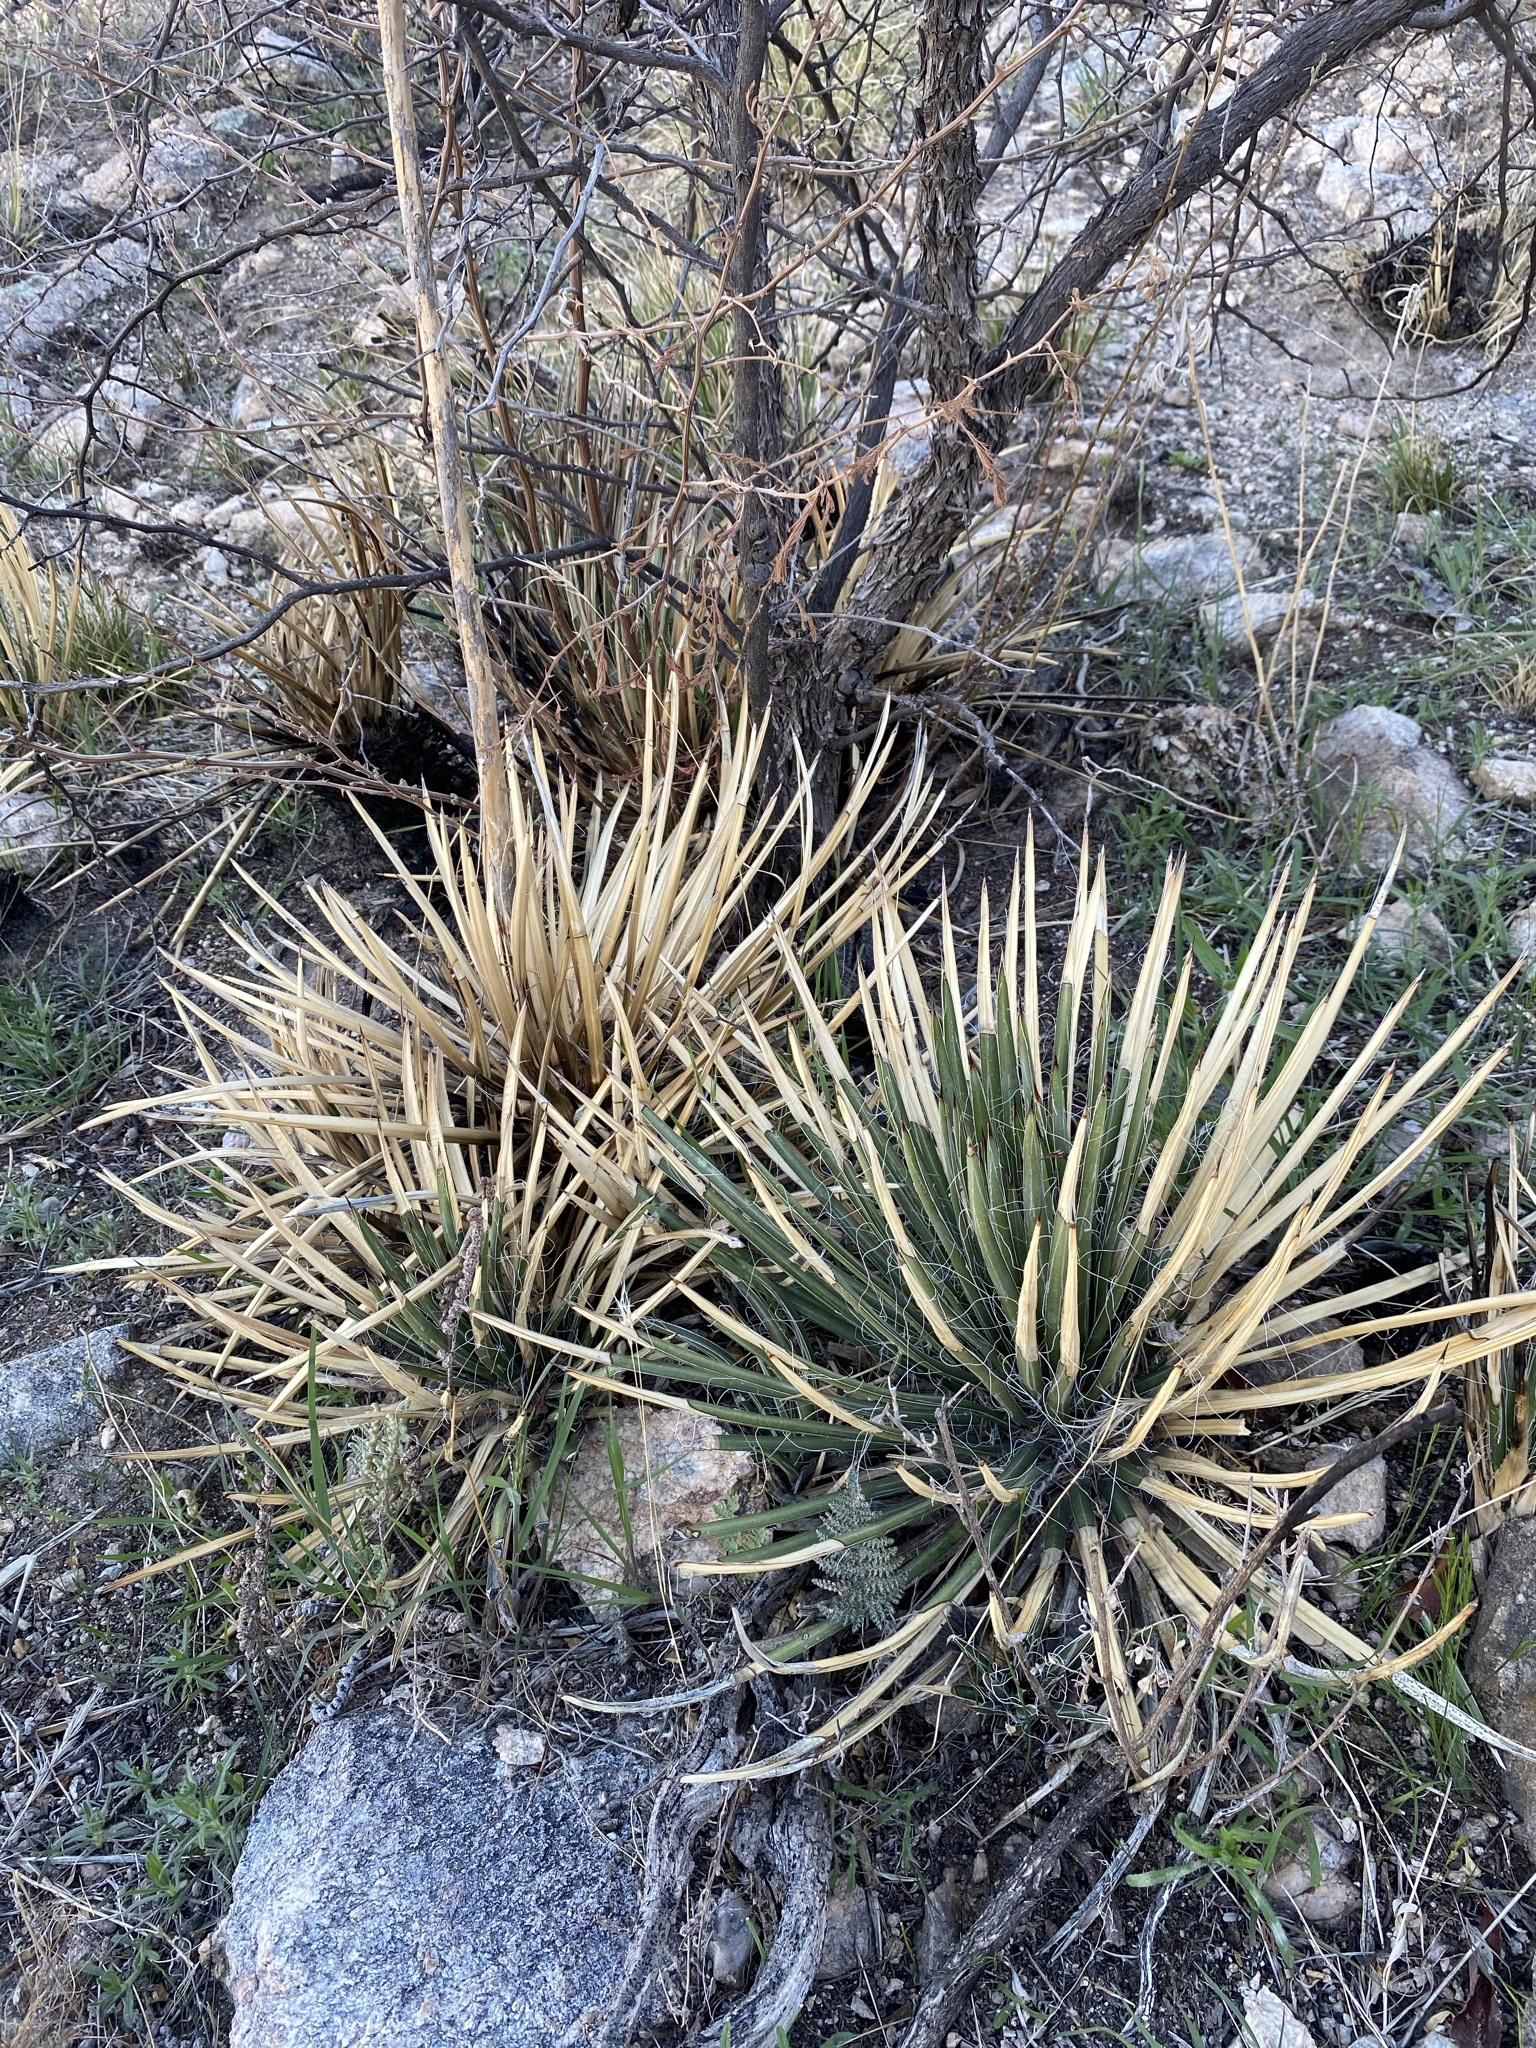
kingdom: Plantae
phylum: Tracheophyta
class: Liliopsida
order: Asparagales
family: Asparagaceae
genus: Agave
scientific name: Agave schottii
